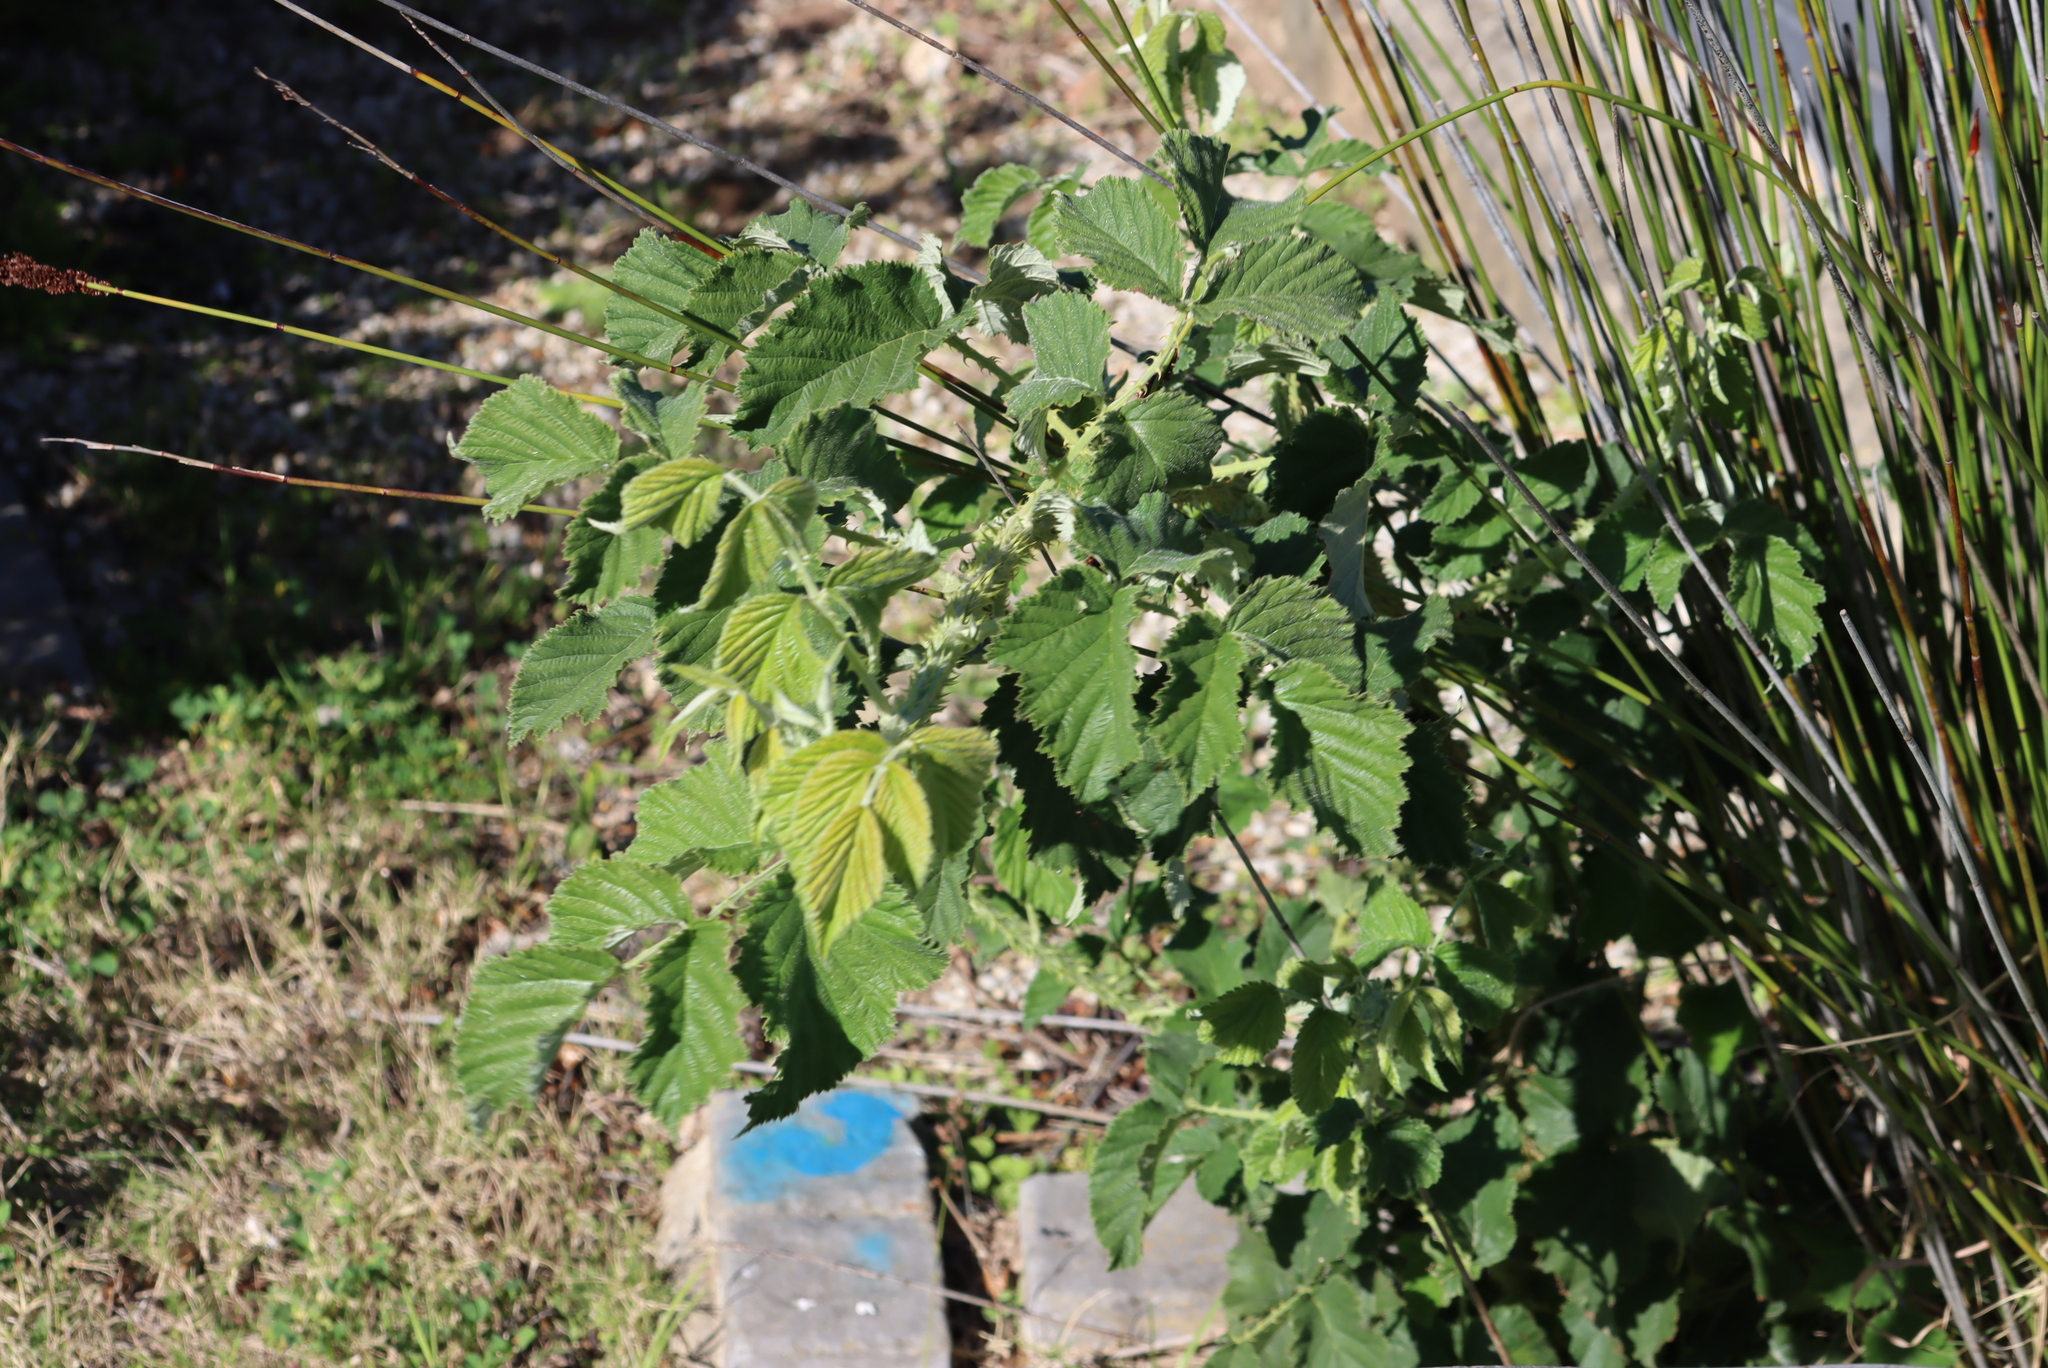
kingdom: Plantae
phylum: Tracheophyta
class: Magnoliopsida
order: Rosales
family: Rosaceae
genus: Rubus
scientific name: Rubus rigidus
